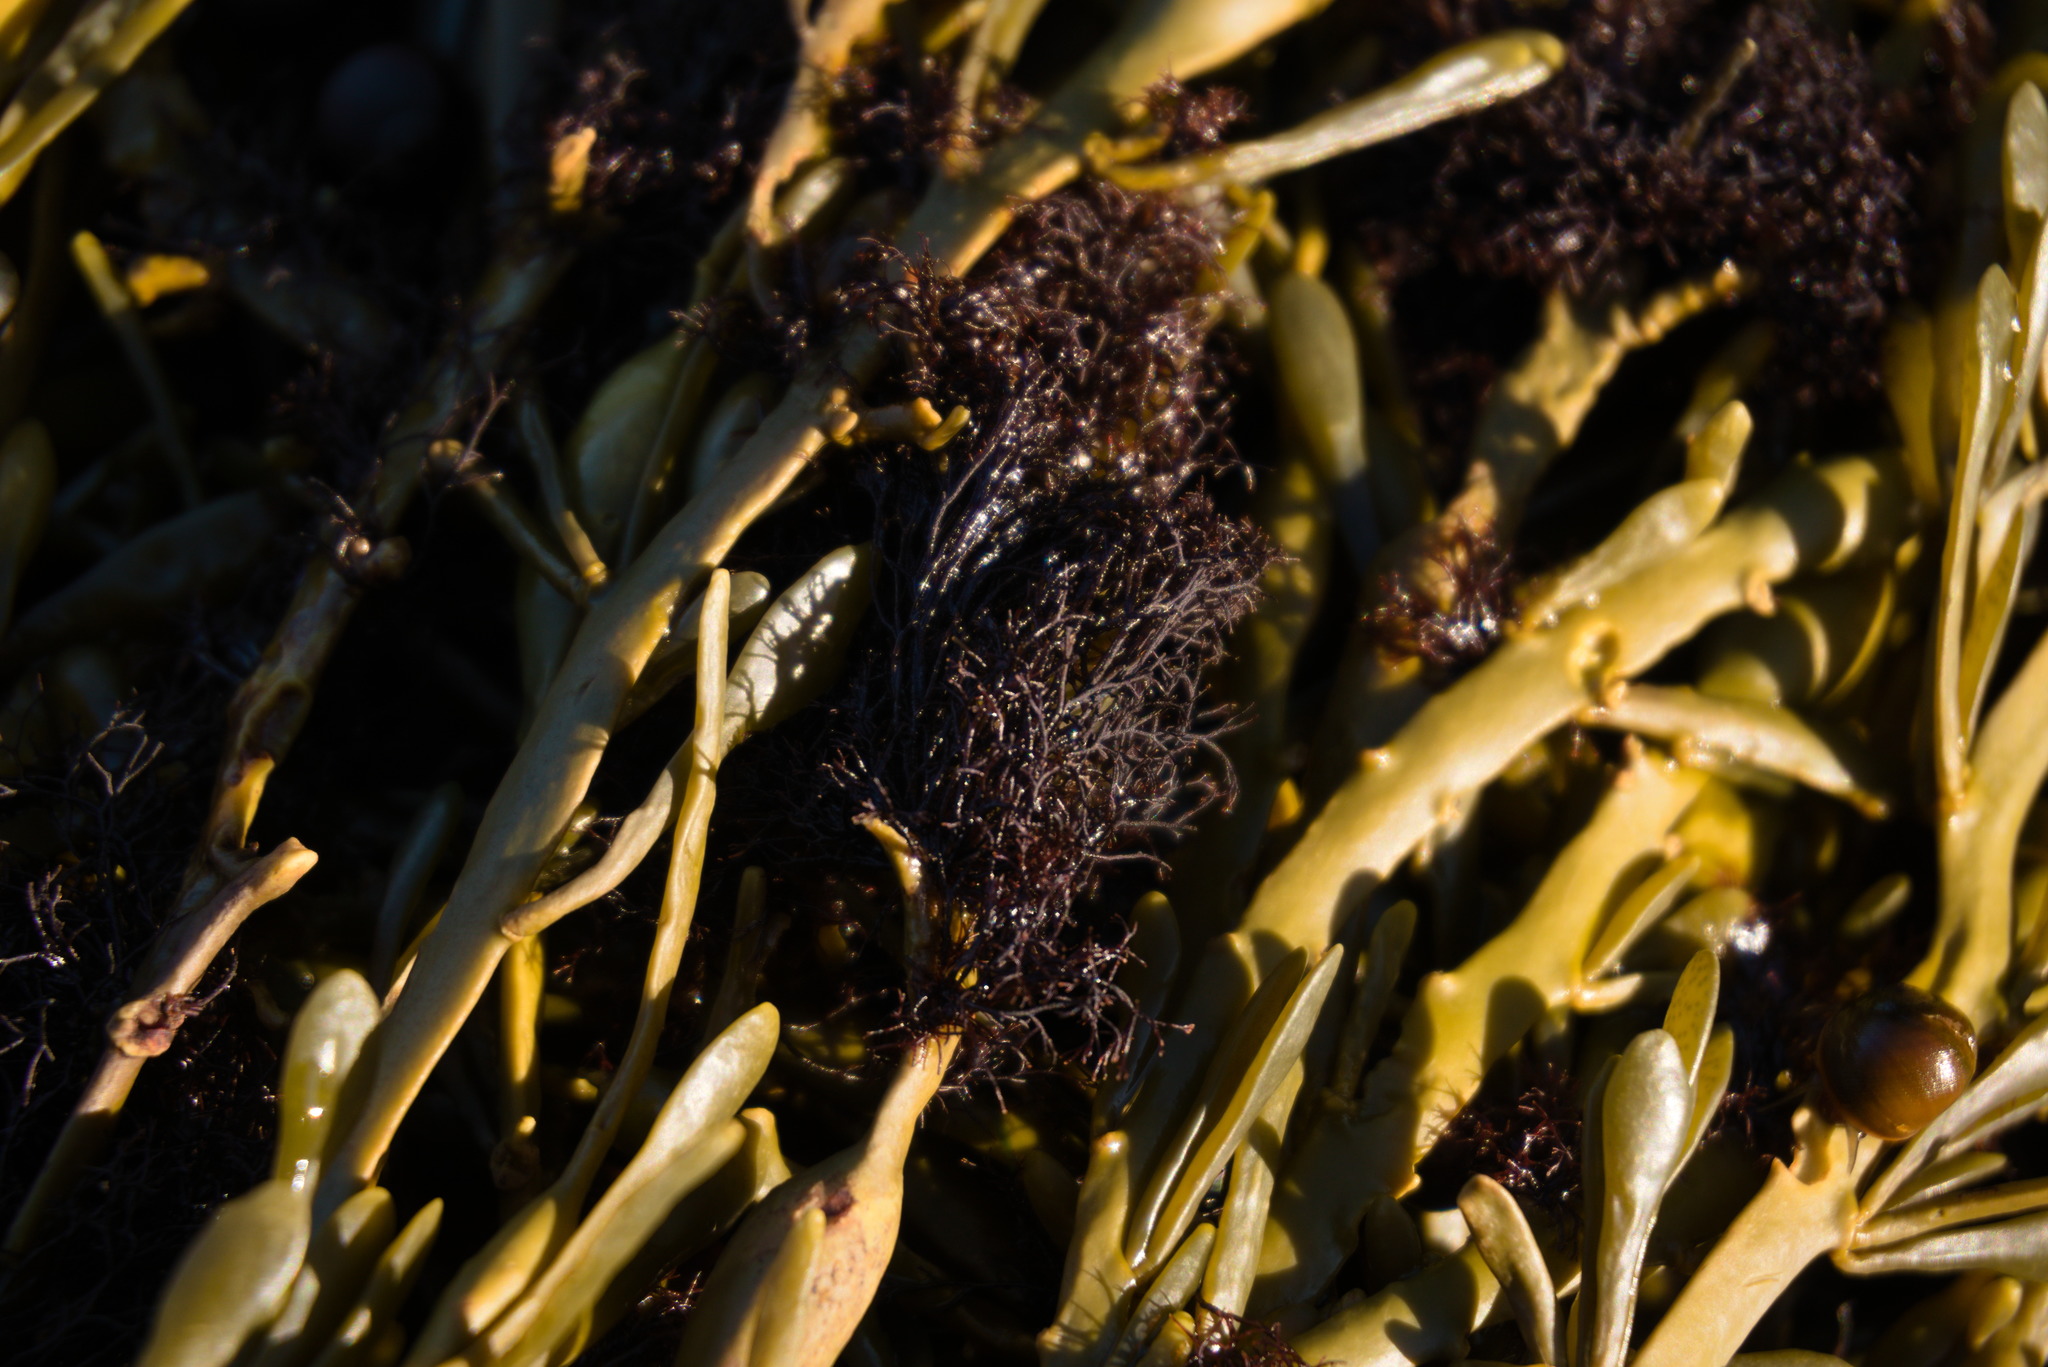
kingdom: Plantae
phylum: Rhodophyta
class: Florideophyceae
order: Ceramiales
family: Rhodomelaceae
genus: Vertebrata
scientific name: Vertebrata lanosa
